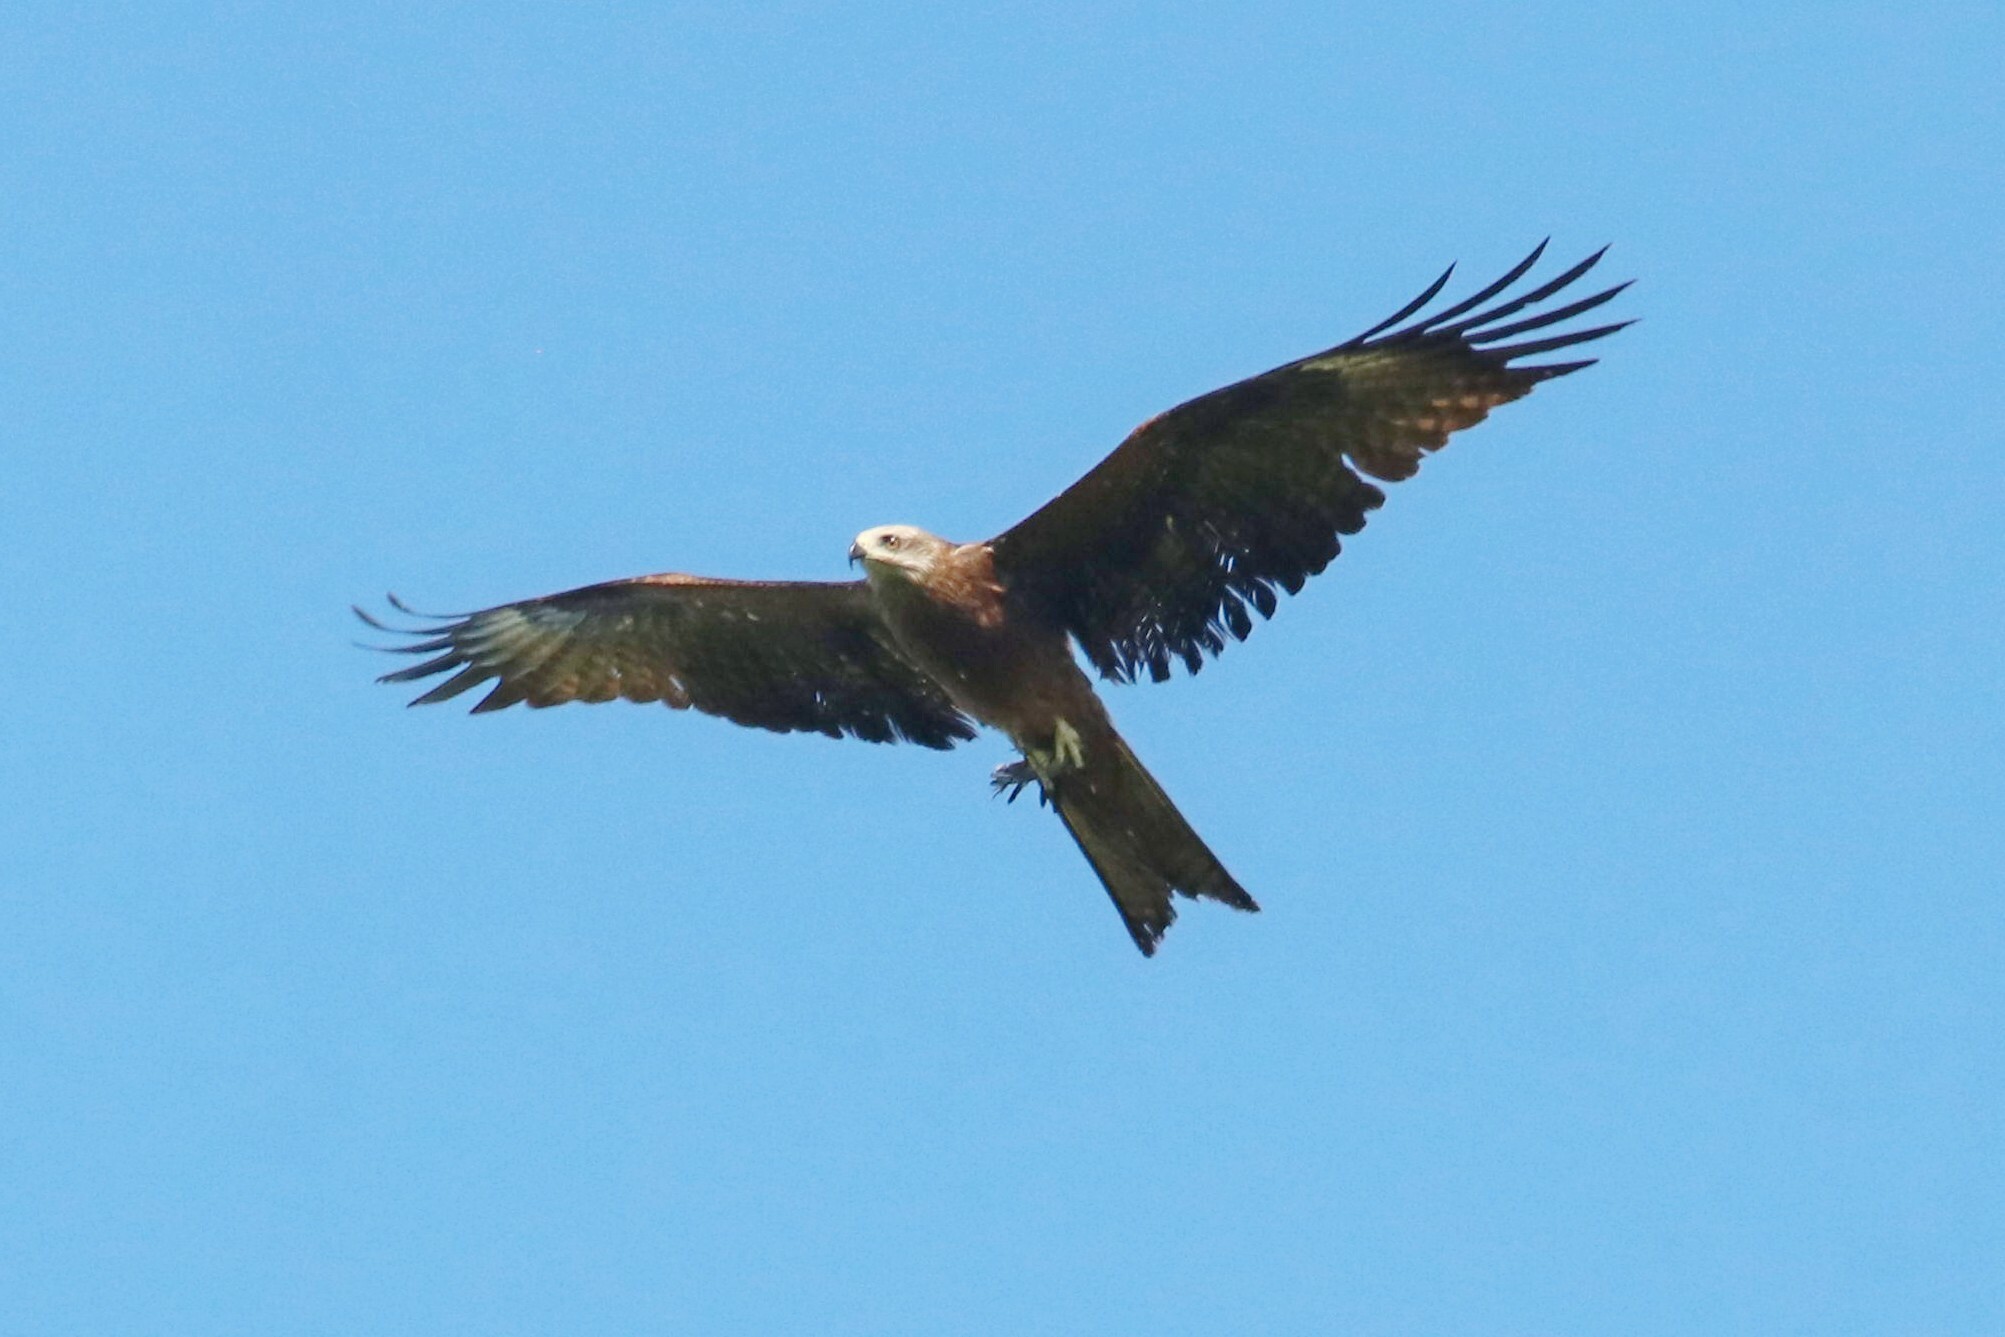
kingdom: Animalia
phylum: Chordata
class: Aves
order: Accipitriformes
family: Accipitridae
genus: Milvus
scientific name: Milvus migrans
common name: Black kite
